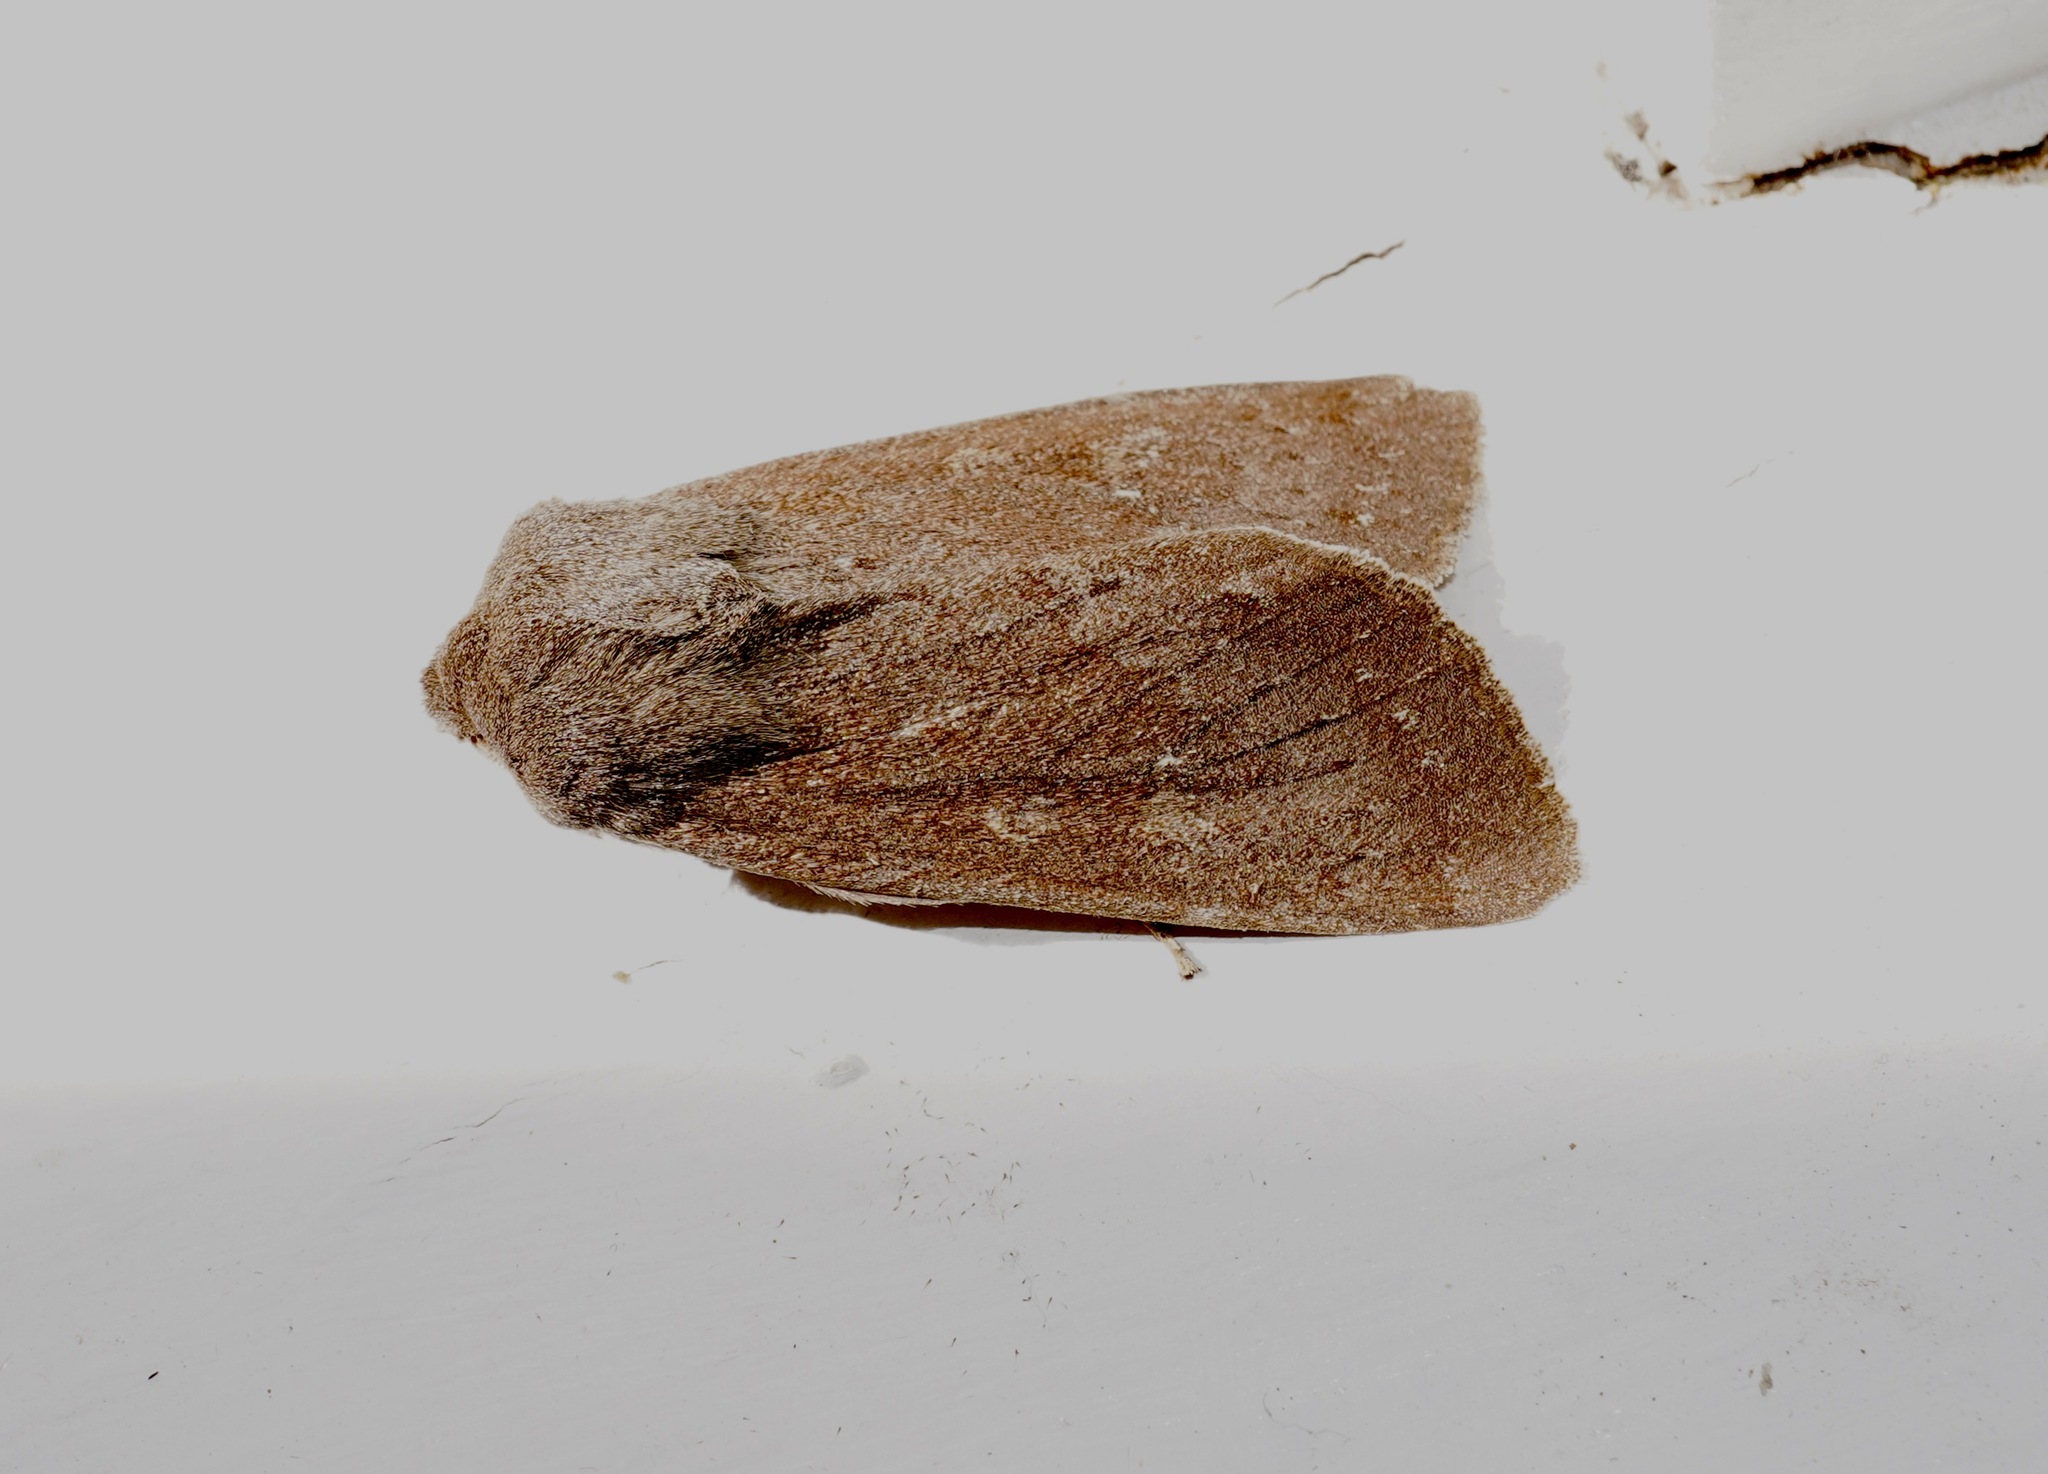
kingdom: Animalia
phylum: Arthropoda
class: Insecta
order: Lepidoptera
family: Noctuidae
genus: Ichneutica
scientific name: Ichneutica nullifera
